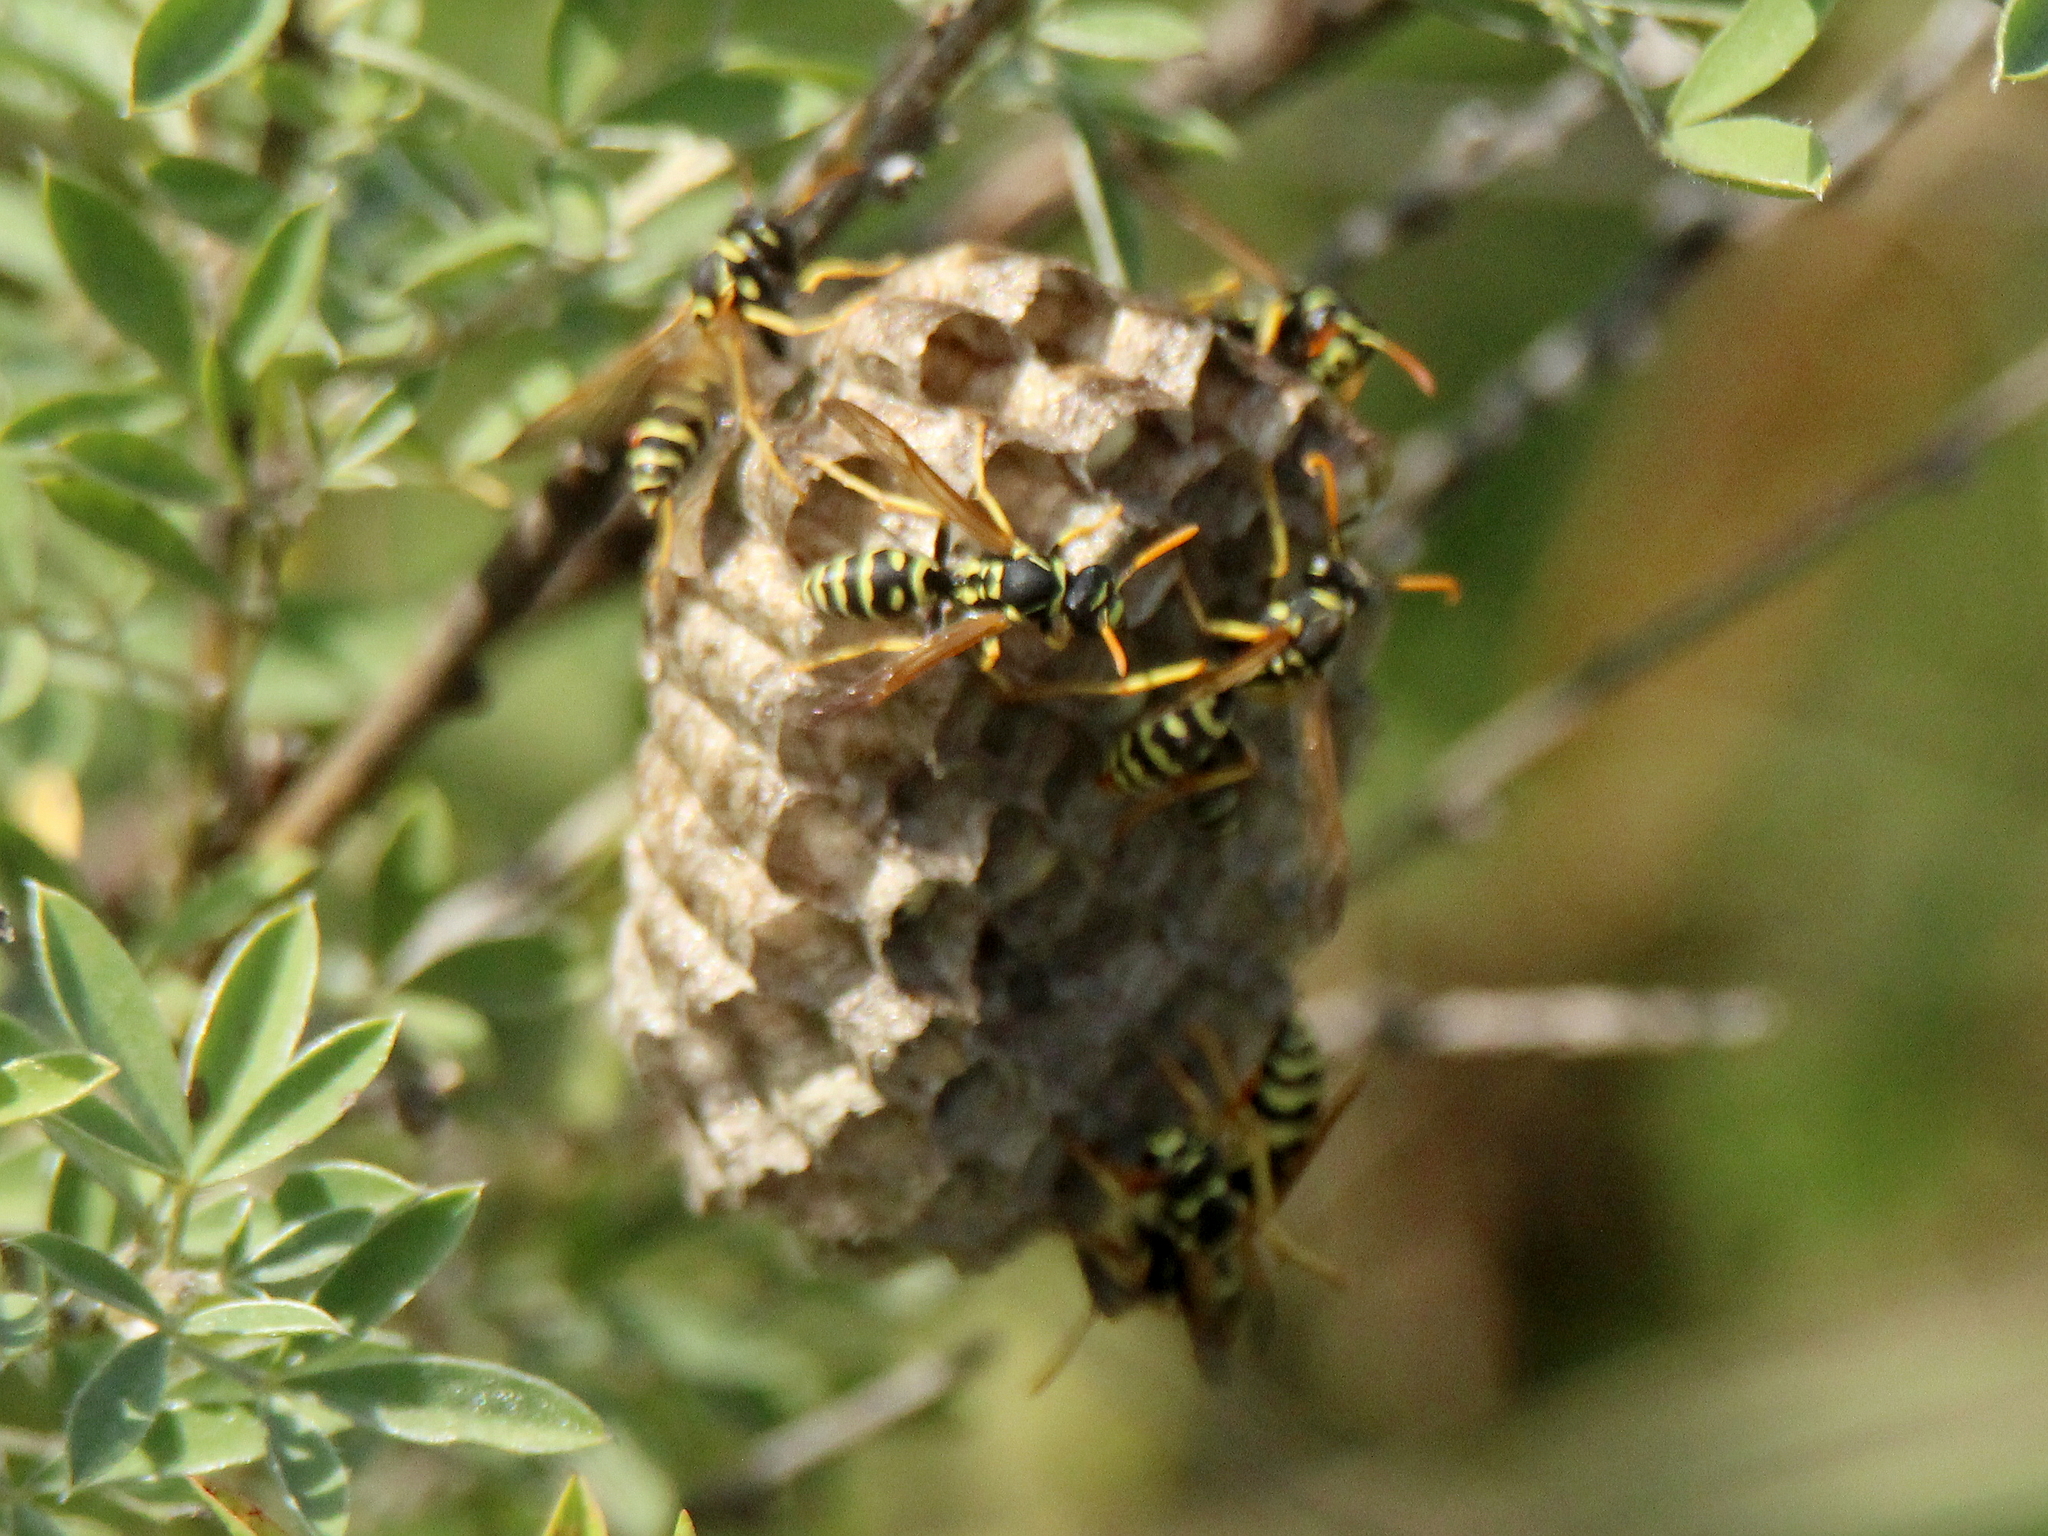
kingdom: Animalia
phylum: Arthropoda
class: Insecta
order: Hymenoptera
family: Eumenidae
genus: Polistes
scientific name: Polistes gallicus
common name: Paper wasp
